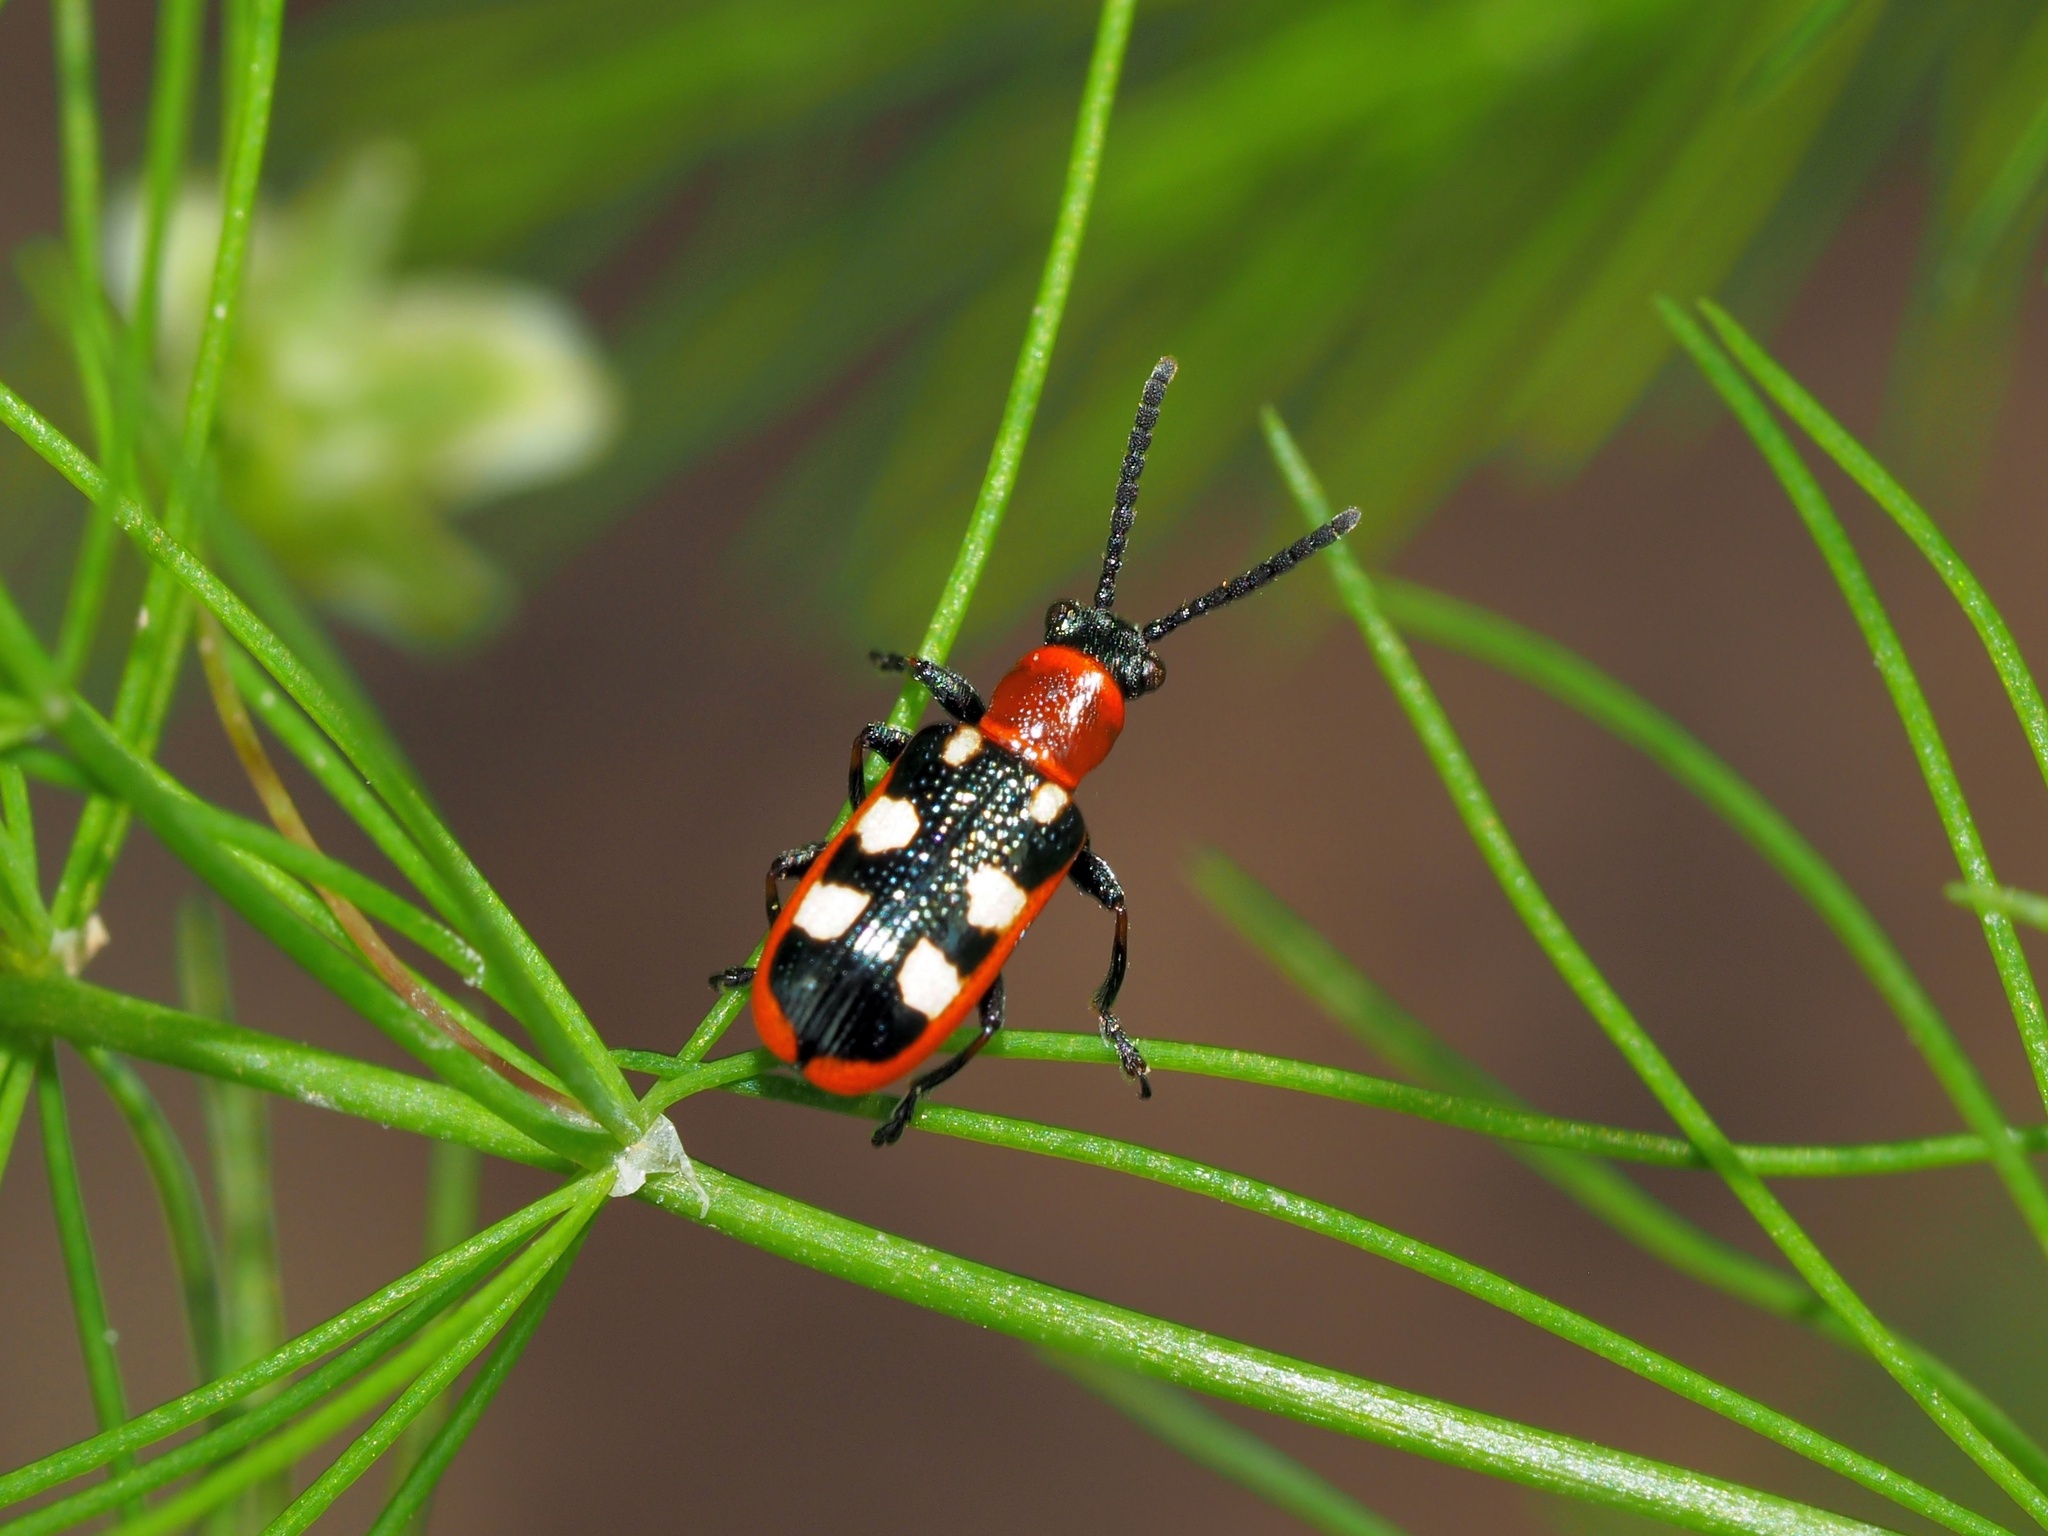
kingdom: Animalia
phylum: Arthropoda
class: Insecta
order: Coleoptera
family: Chrysomelidae
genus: Crioceris
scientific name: Crioceris asparagi
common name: Asparagus beetle
